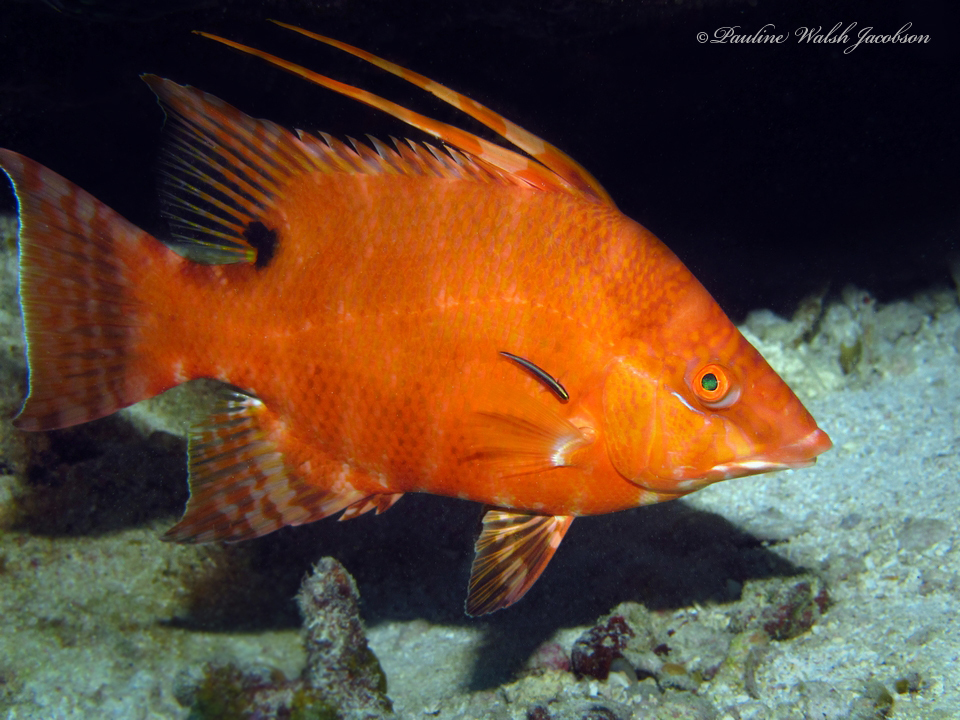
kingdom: Animalia
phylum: Chordata
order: Perciformes
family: Labridae
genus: Lachnolaimus
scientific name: Lachnolaimus maximus
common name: Hogfish
